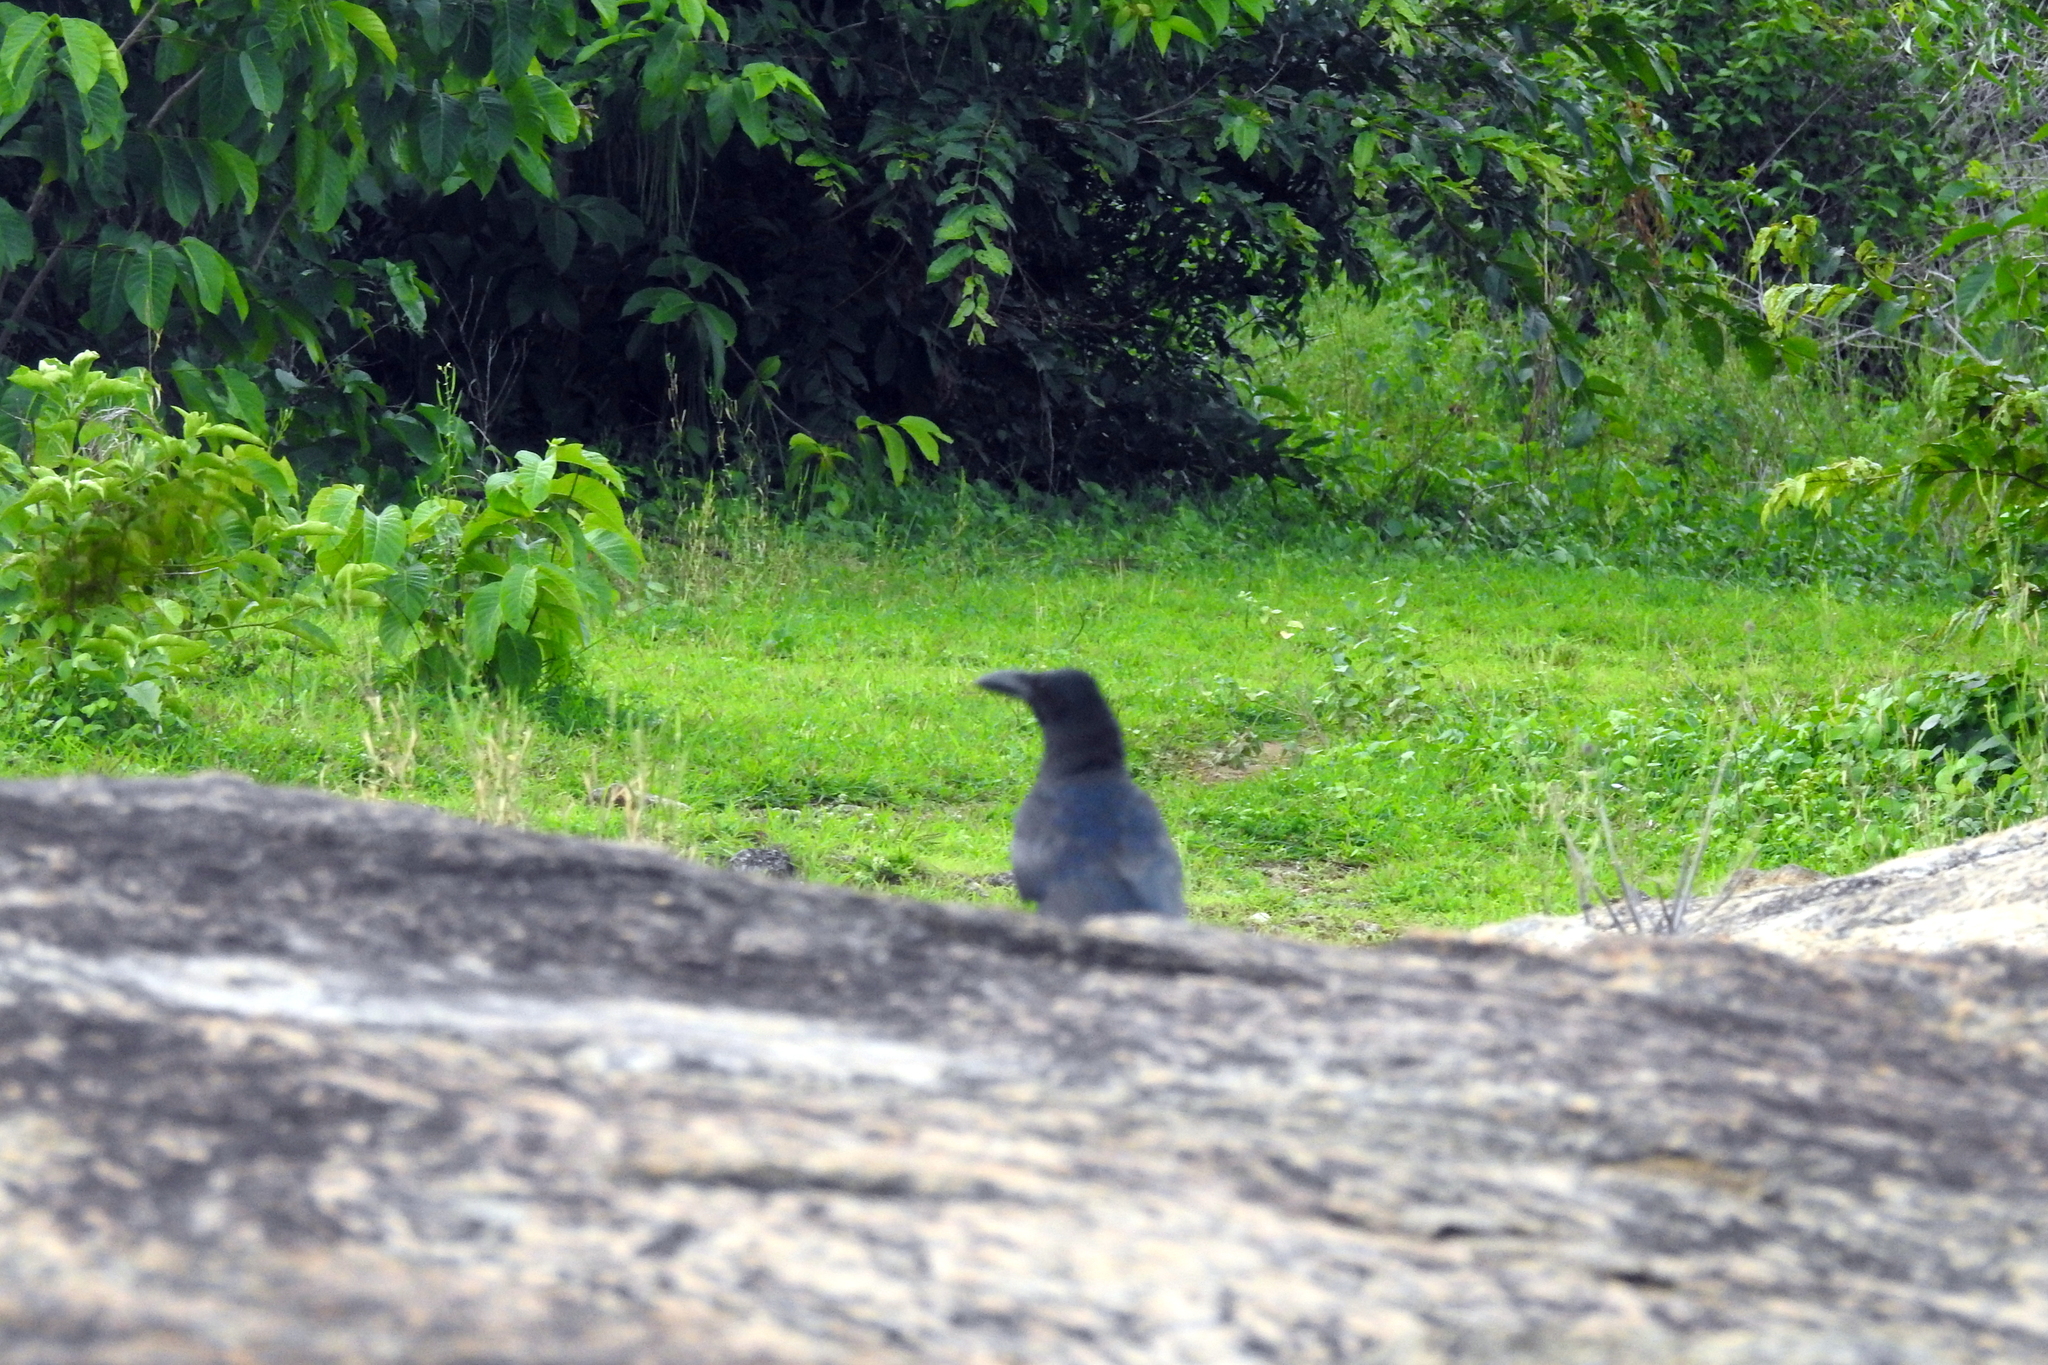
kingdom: Animalia
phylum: Chordata
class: Aves
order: Passeriformes
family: Corvidae
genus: Corvus
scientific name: Corvus macrorhynchos
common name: Large-billed crow
